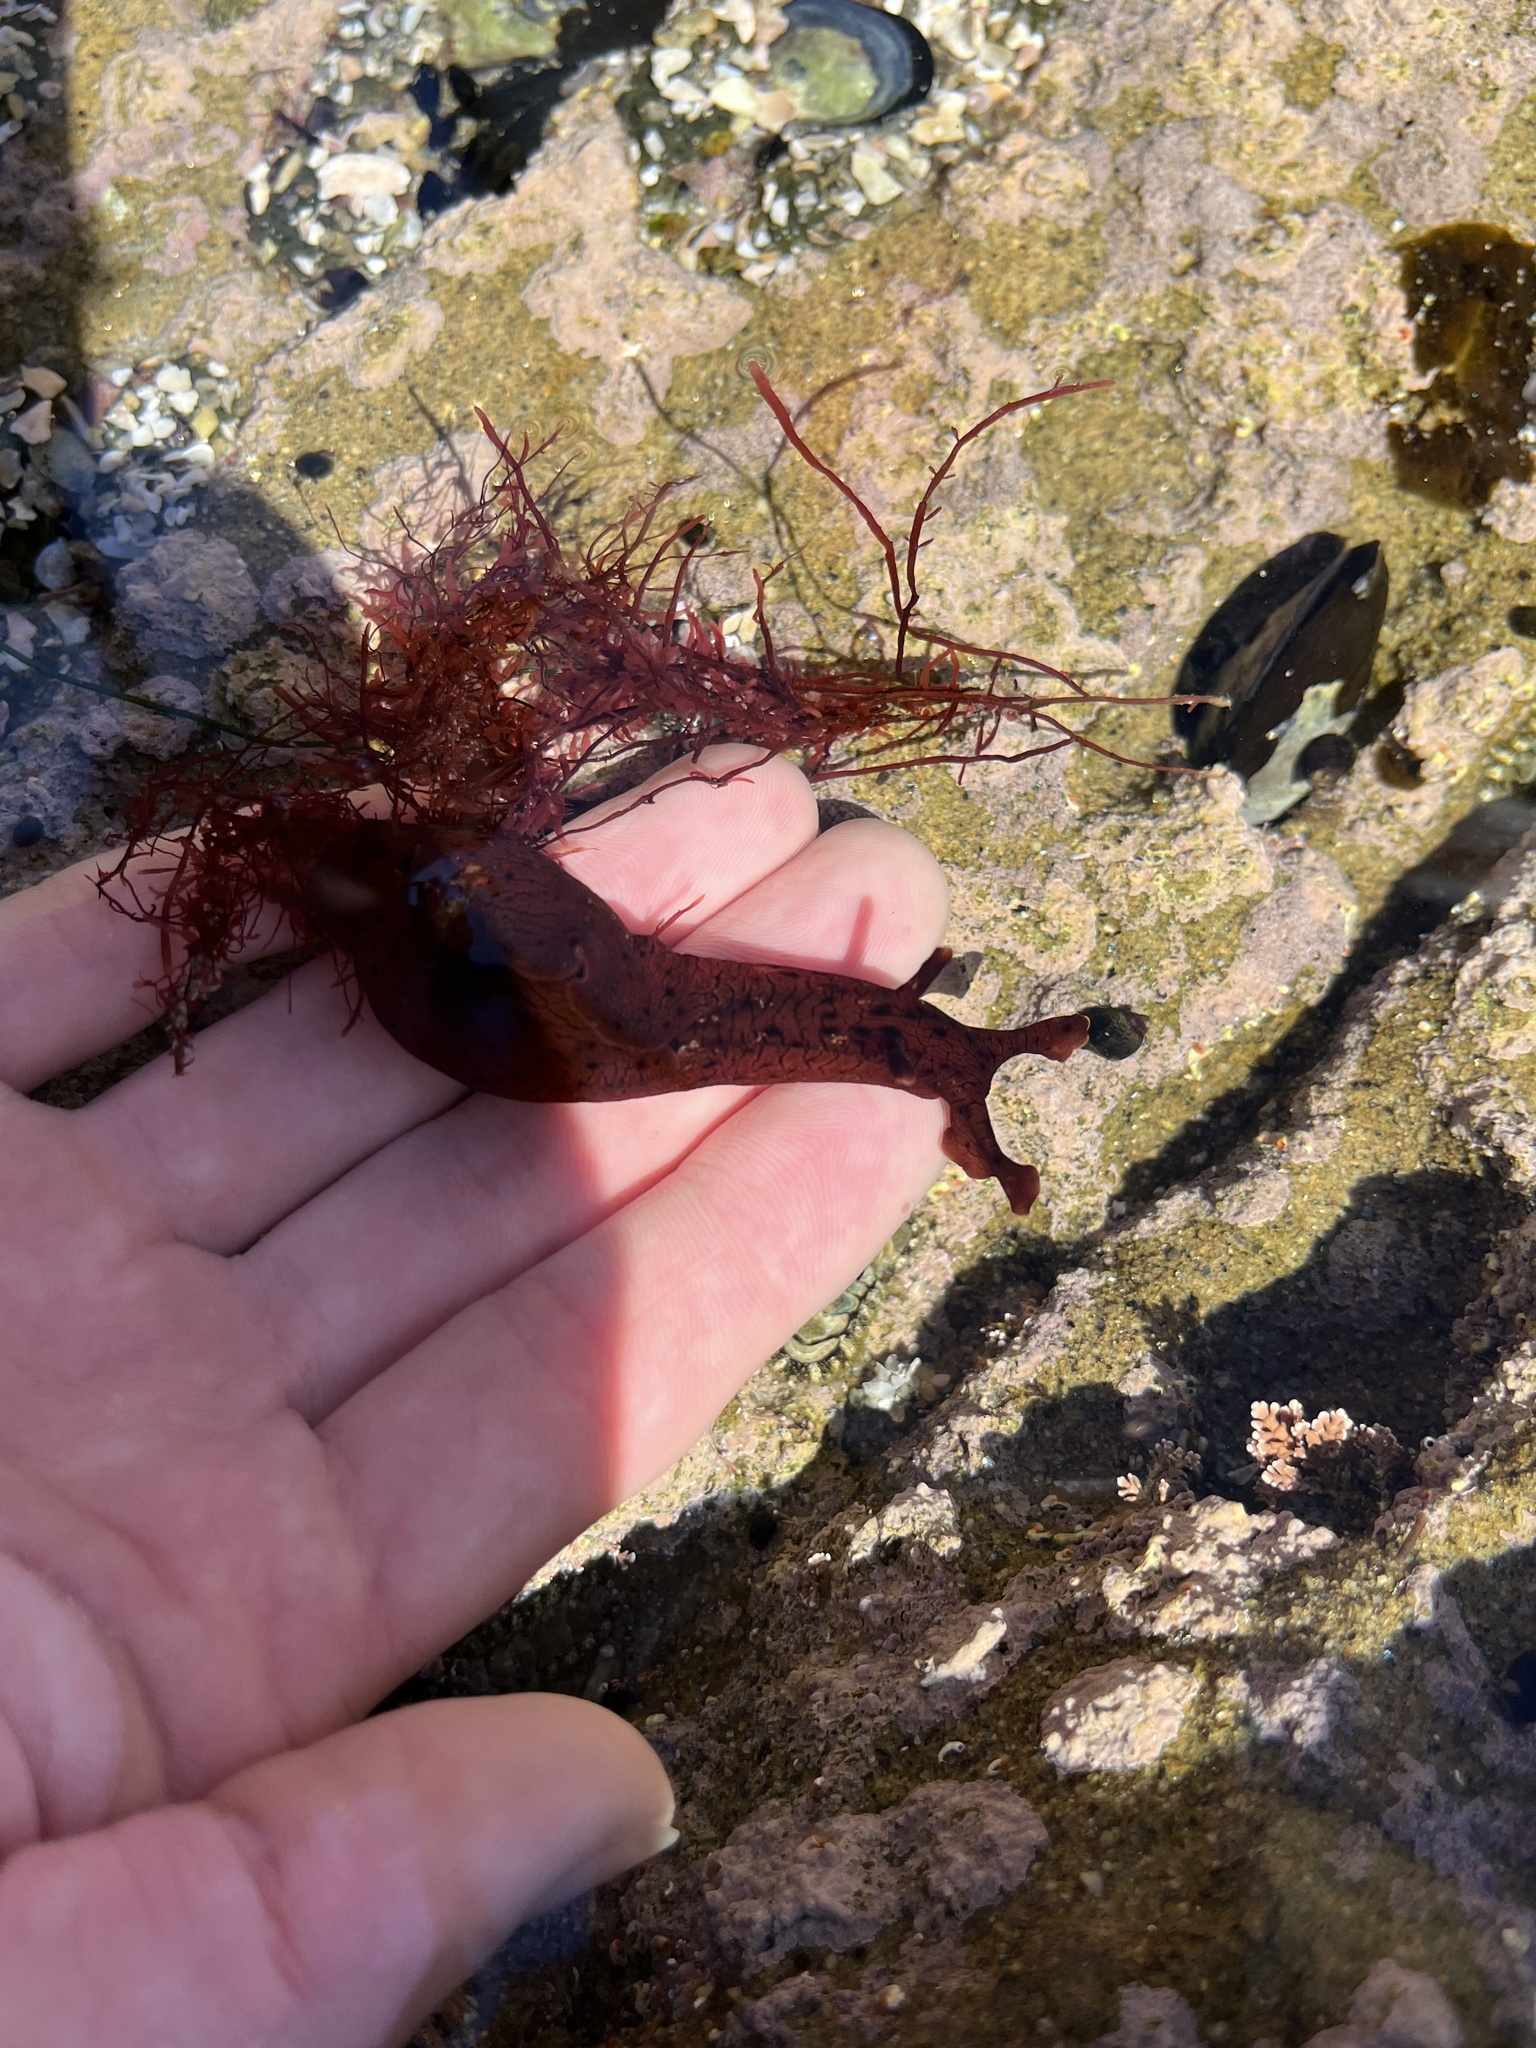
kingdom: Animalia
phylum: Mollusca
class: Gastropoda
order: Aplysiida
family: Aplysiidae
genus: Aplysia
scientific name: Aplysia californica
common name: California seahare
